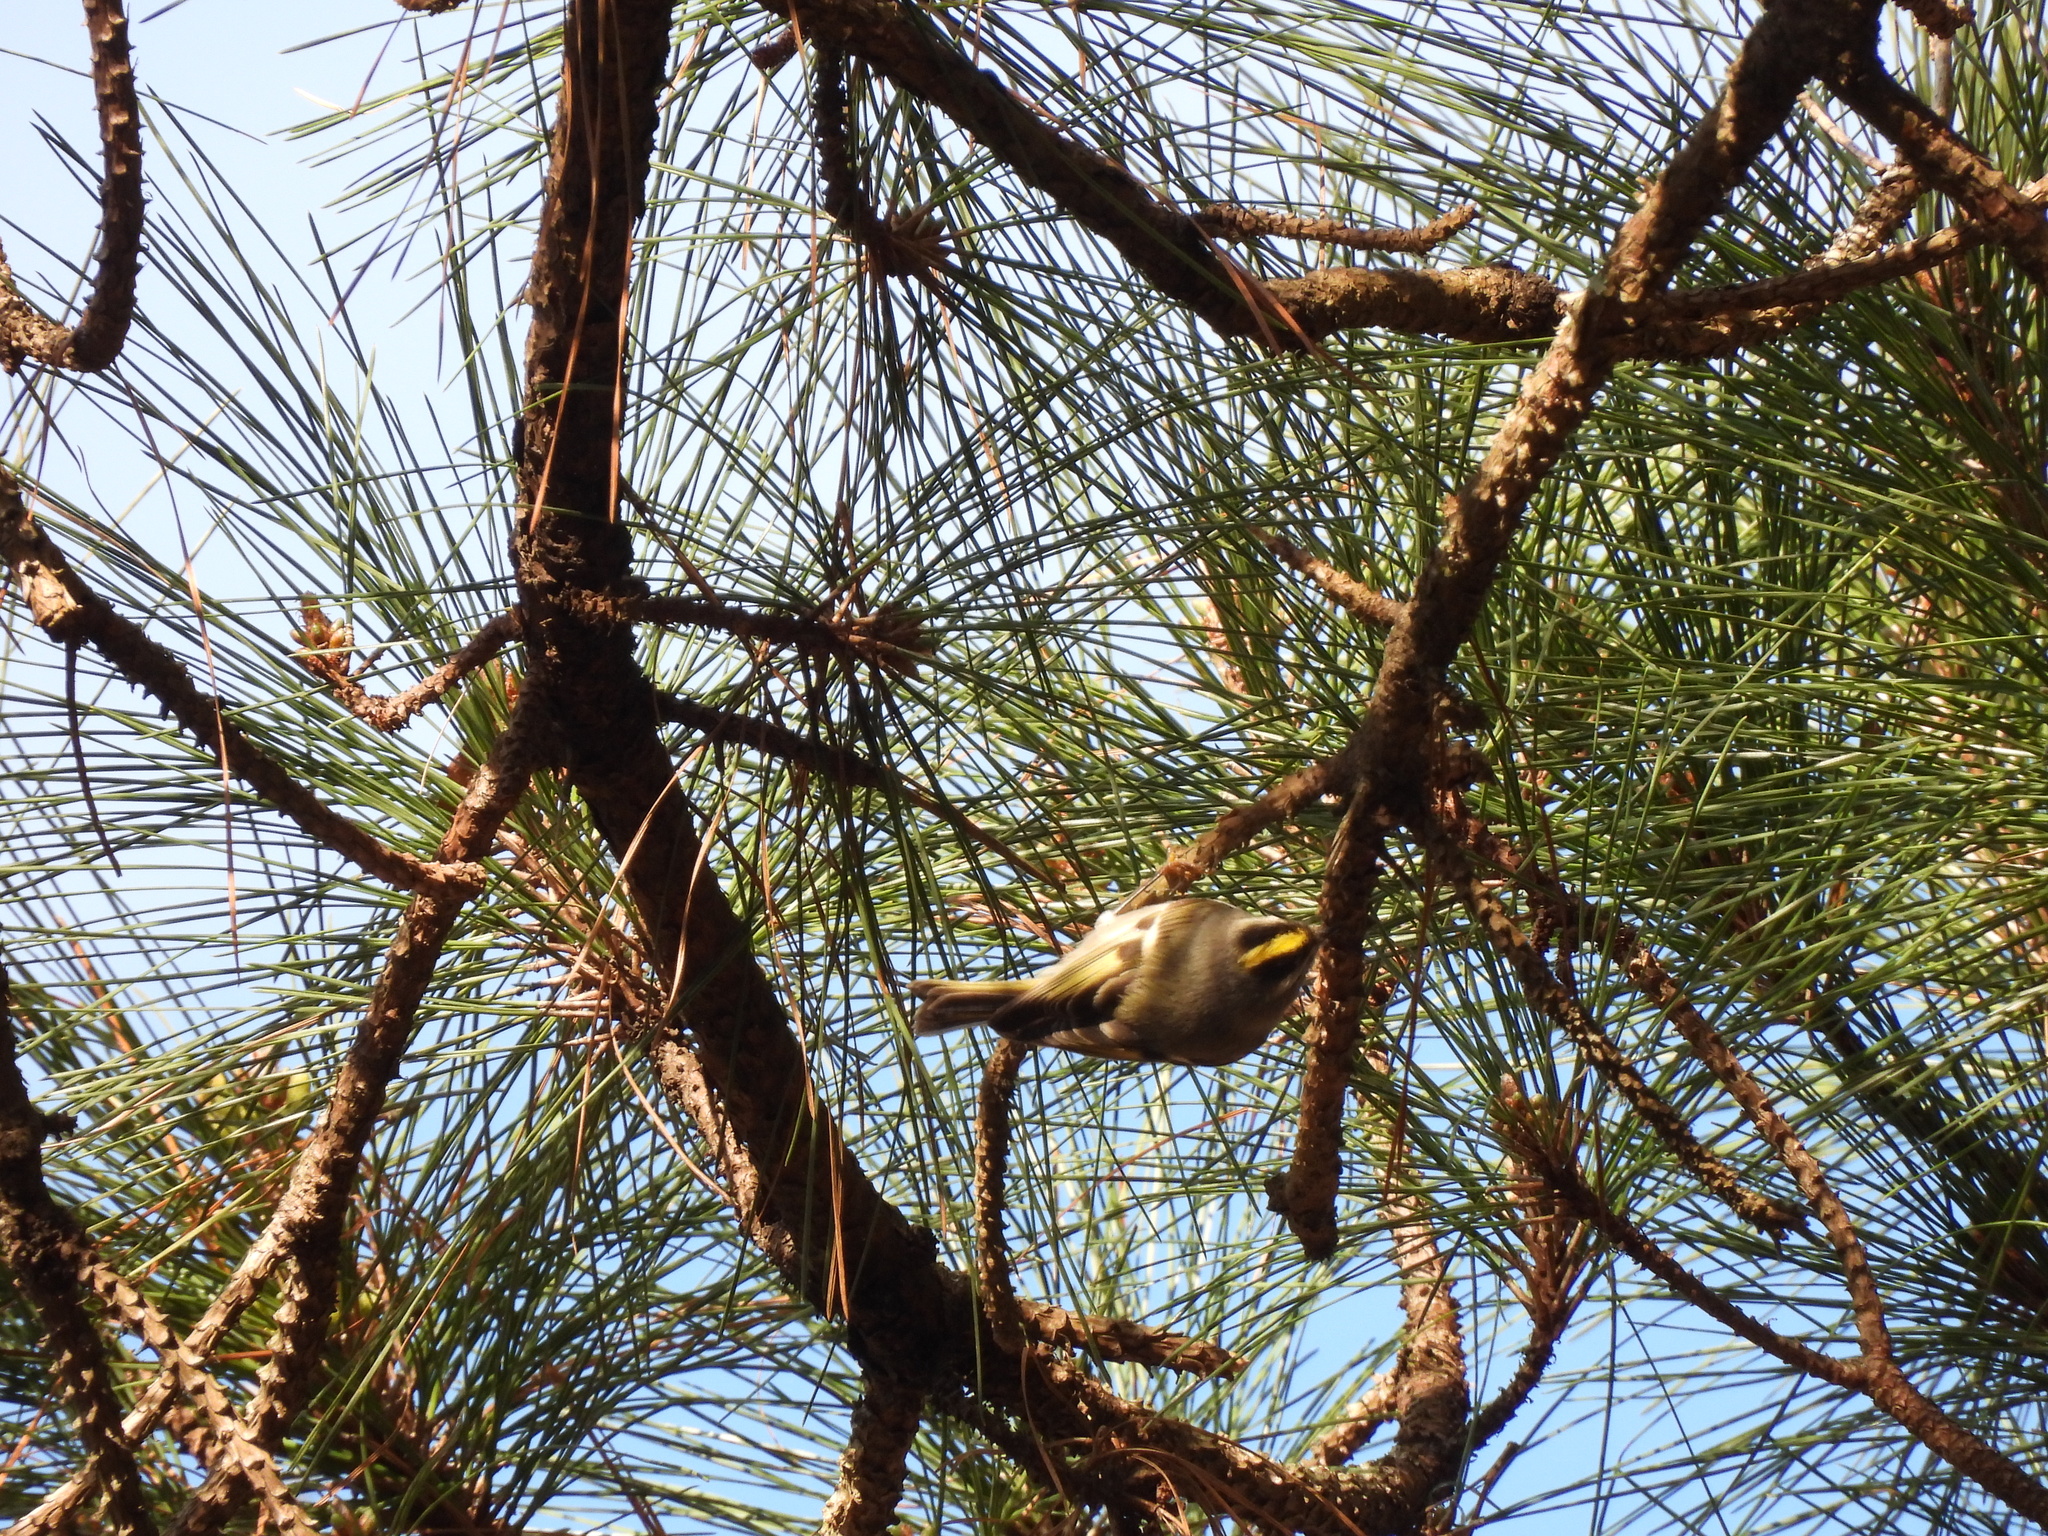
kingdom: Animalia
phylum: Chordata
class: Aves
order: Passeriformes
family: Regulidae
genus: Regulus
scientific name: Regulus satrapa
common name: Golden-crowned kinglet
